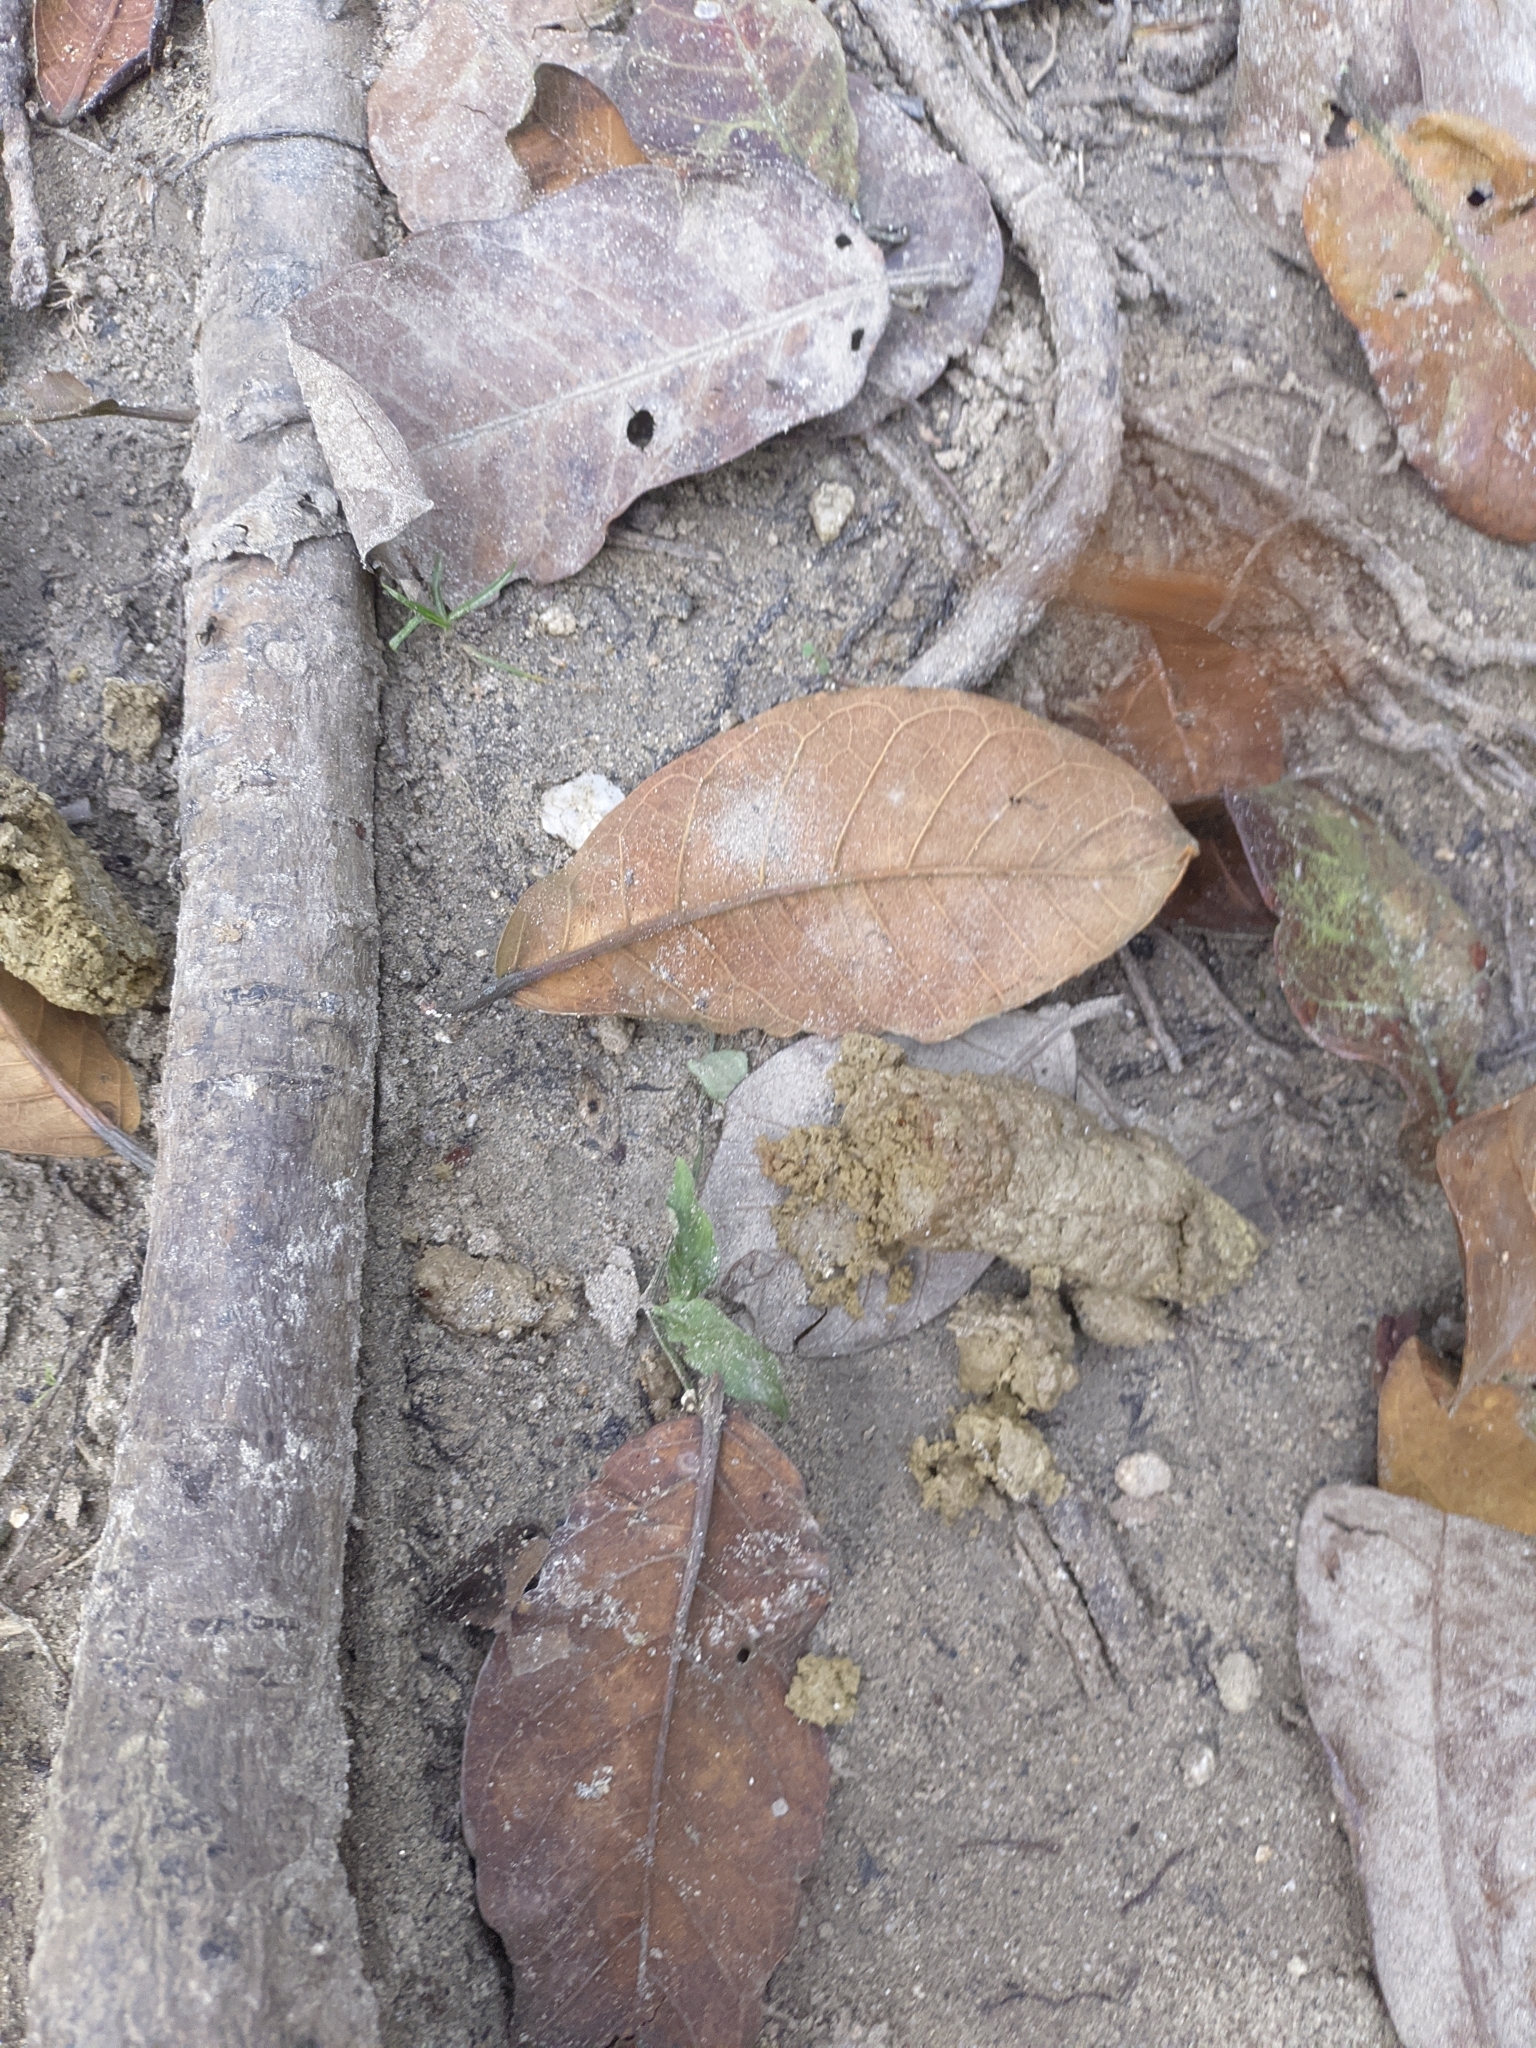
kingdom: Animalia
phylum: Arthropoda
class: Insecta
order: Lepidoptera
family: Hesperiidae
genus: Dyscophellus
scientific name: Dyscophellus porcius
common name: Fiery scarlet-eye
